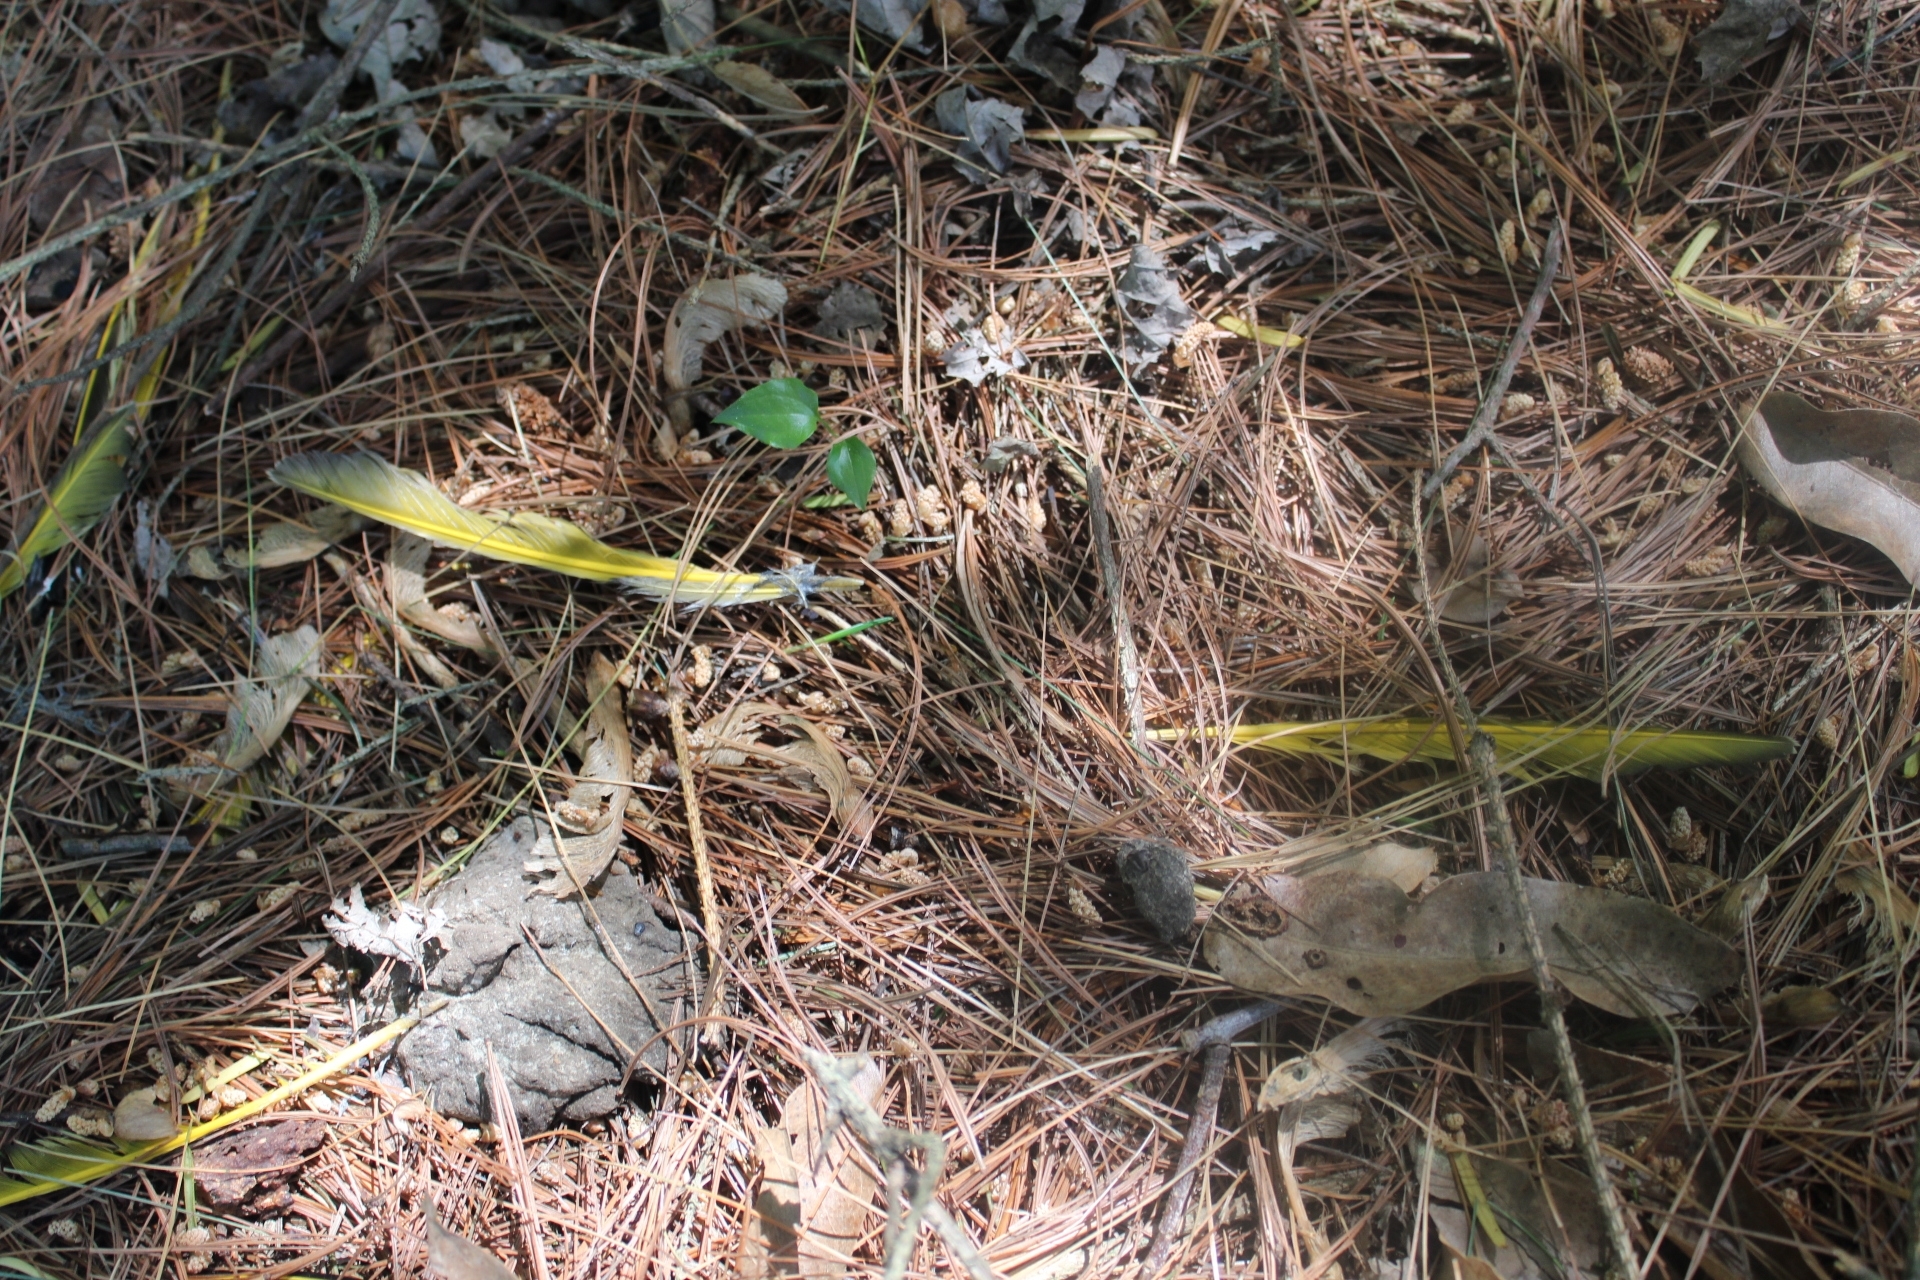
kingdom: Animalia
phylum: Chordata
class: Aves
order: Piciformes
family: Picidae
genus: Colaptes
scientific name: Colaptes auratus
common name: Northern flicker
